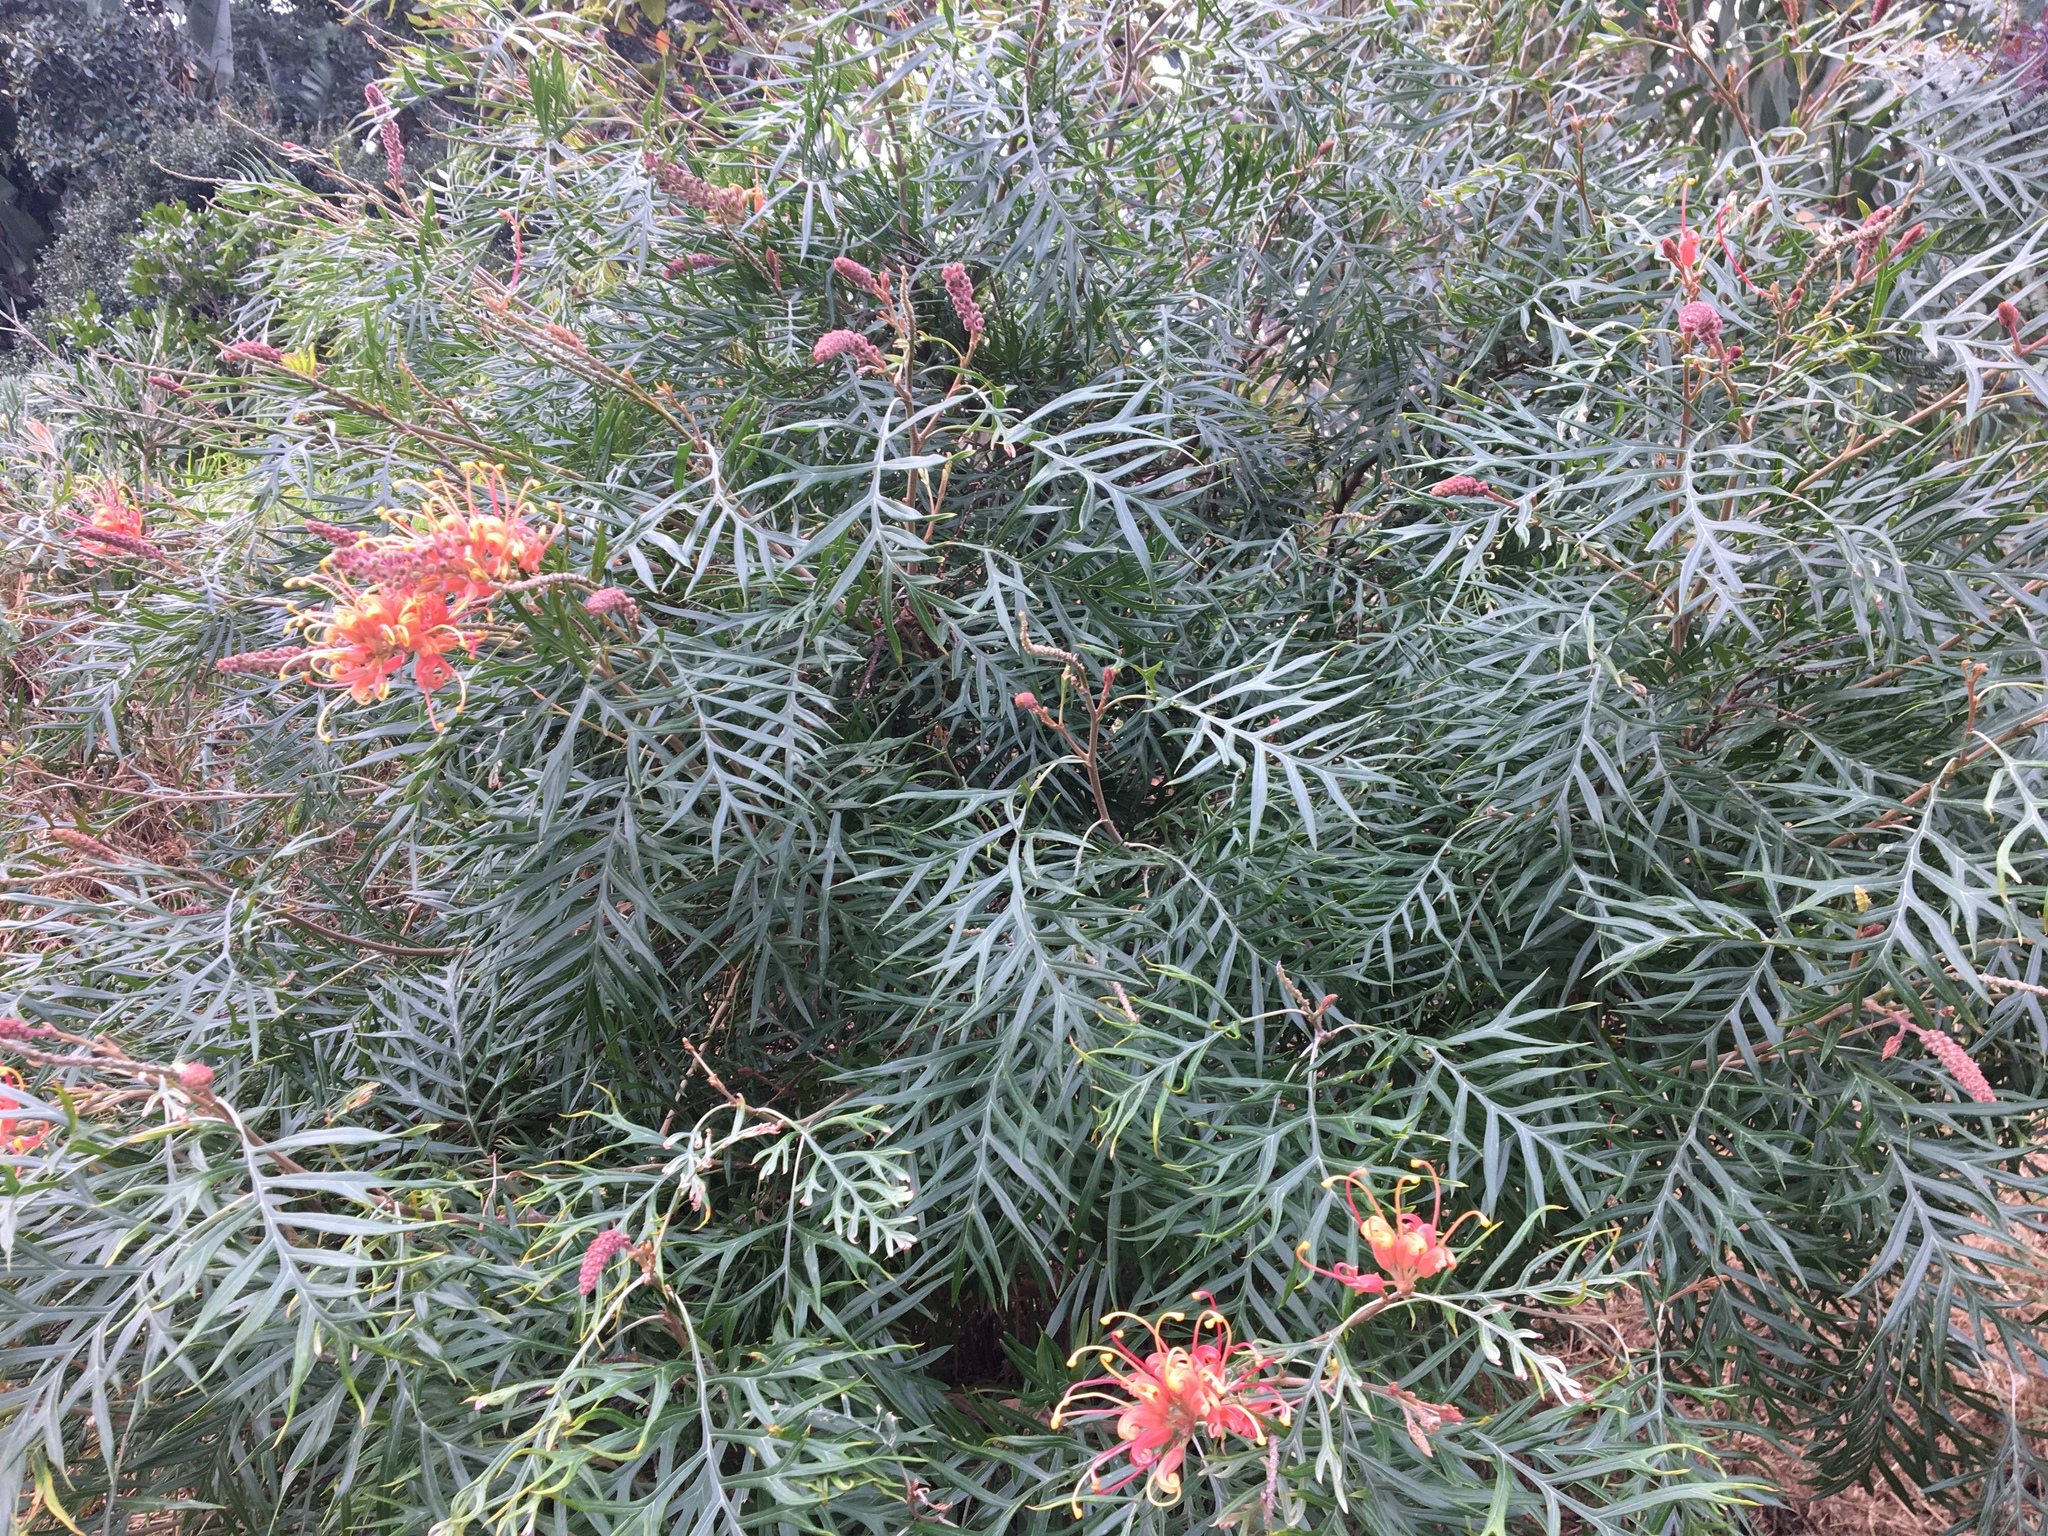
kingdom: Plantae
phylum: Tracheophyta
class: Magnoliopsida
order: Proteales
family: Proteaceae
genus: Grevillea
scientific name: Grevillea
